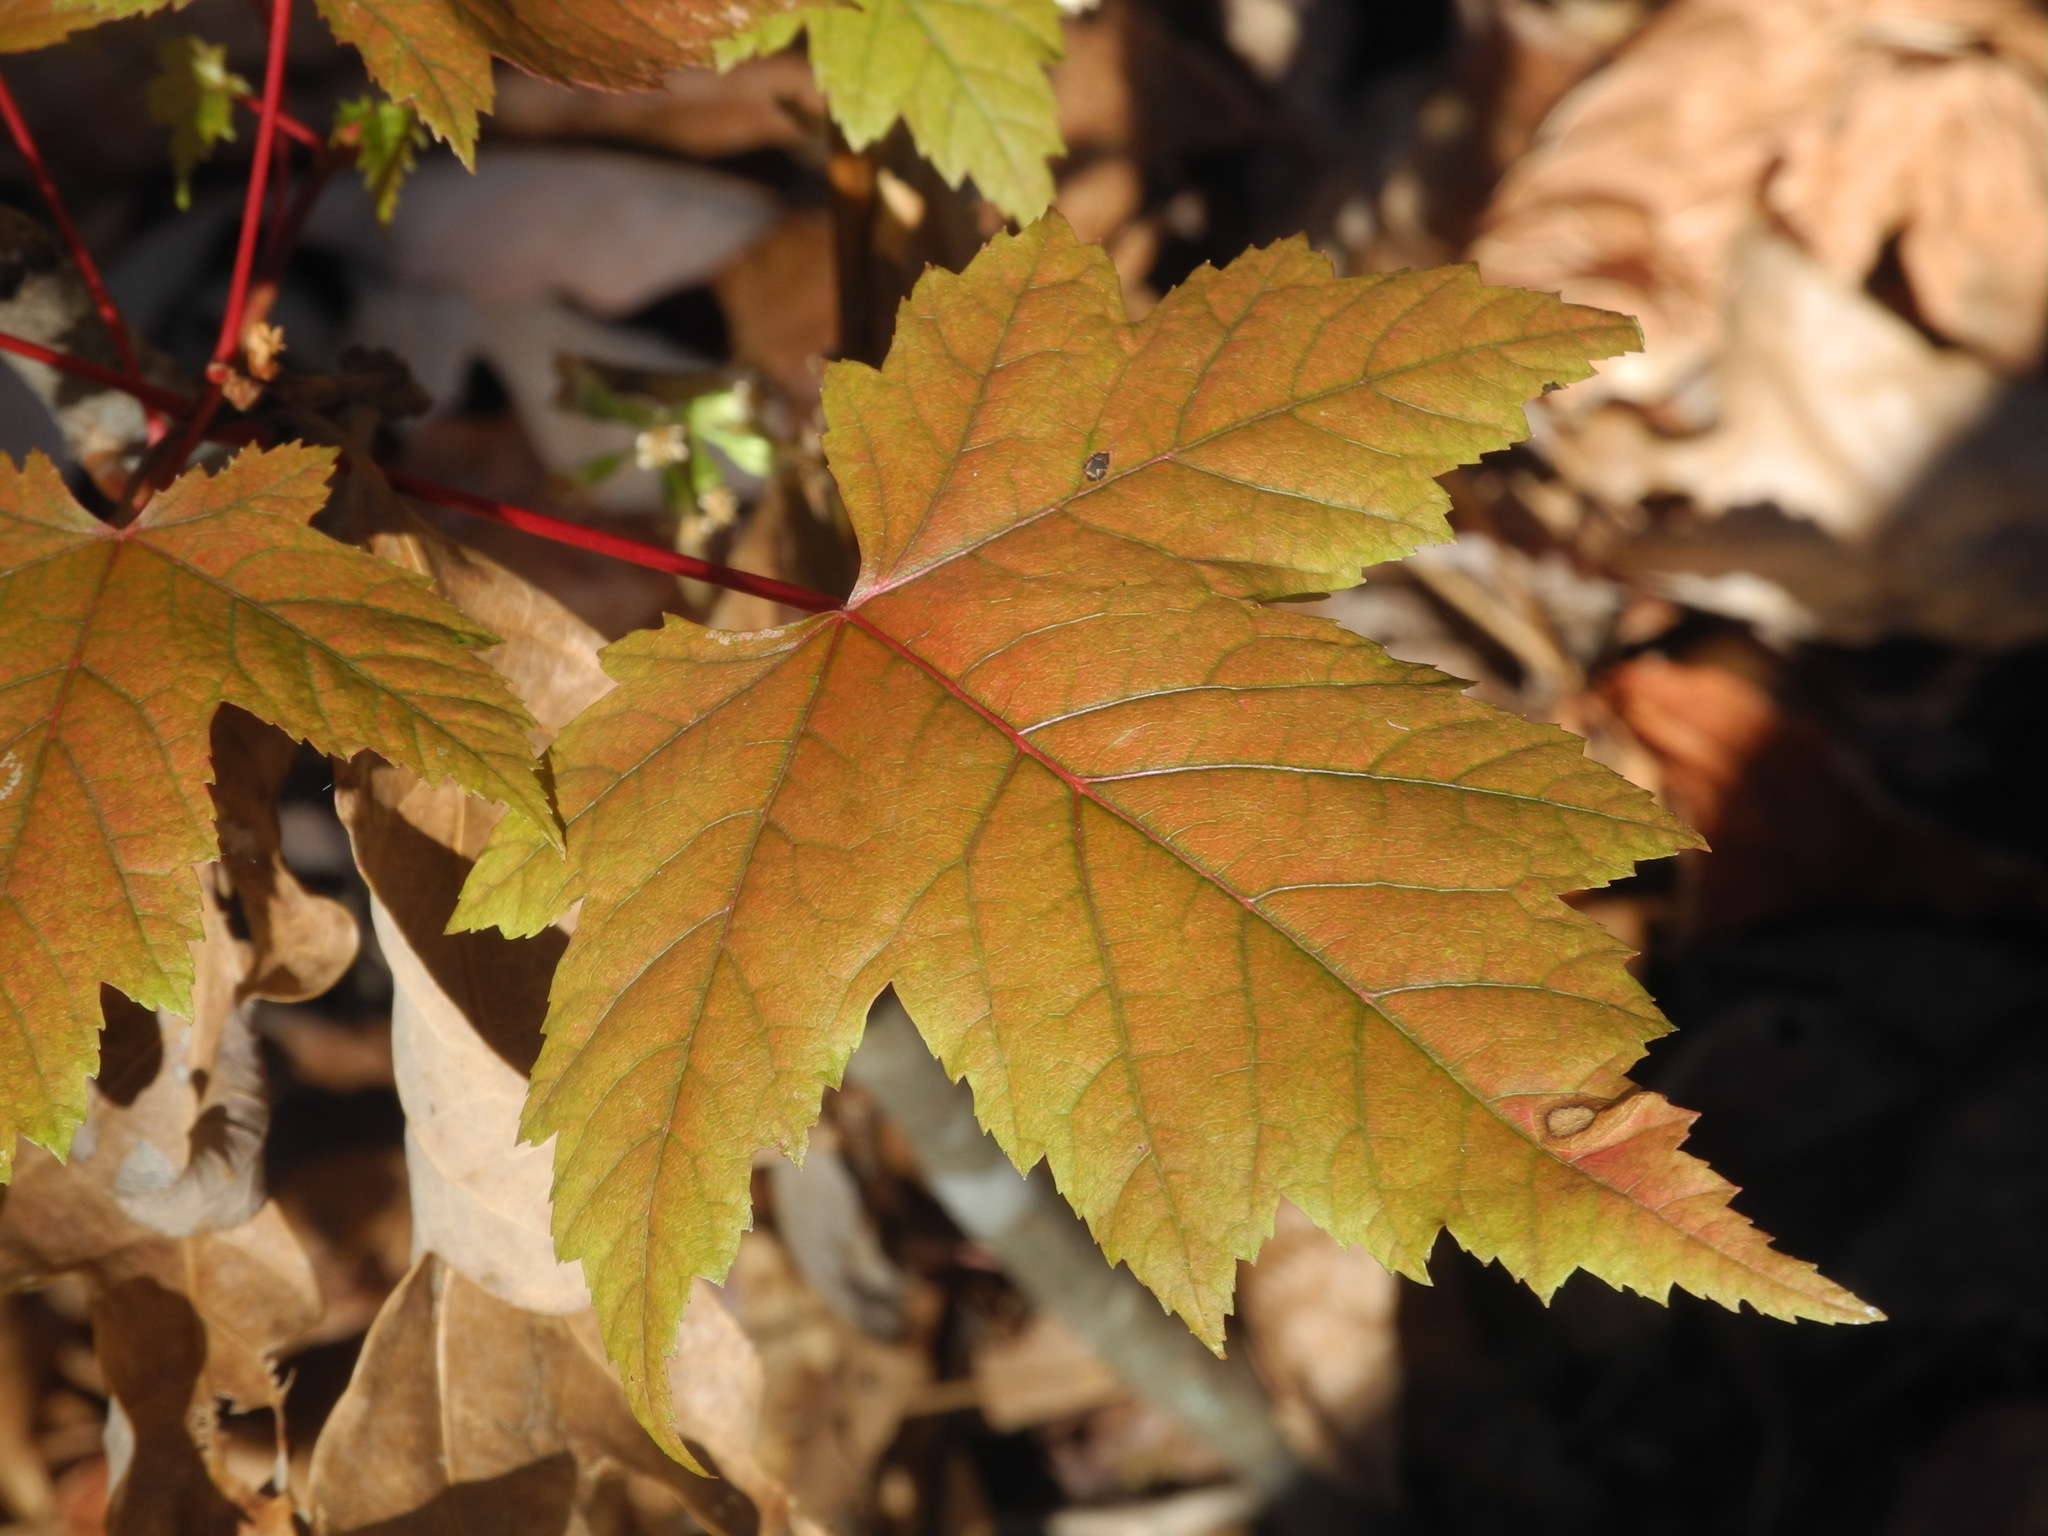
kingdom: Plantae
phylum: Tracheophyta
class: Magnoliopsida
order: Sapindales
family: Sapindaceae
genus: Acer
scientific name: Acer freemanii
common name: Freeman maple
